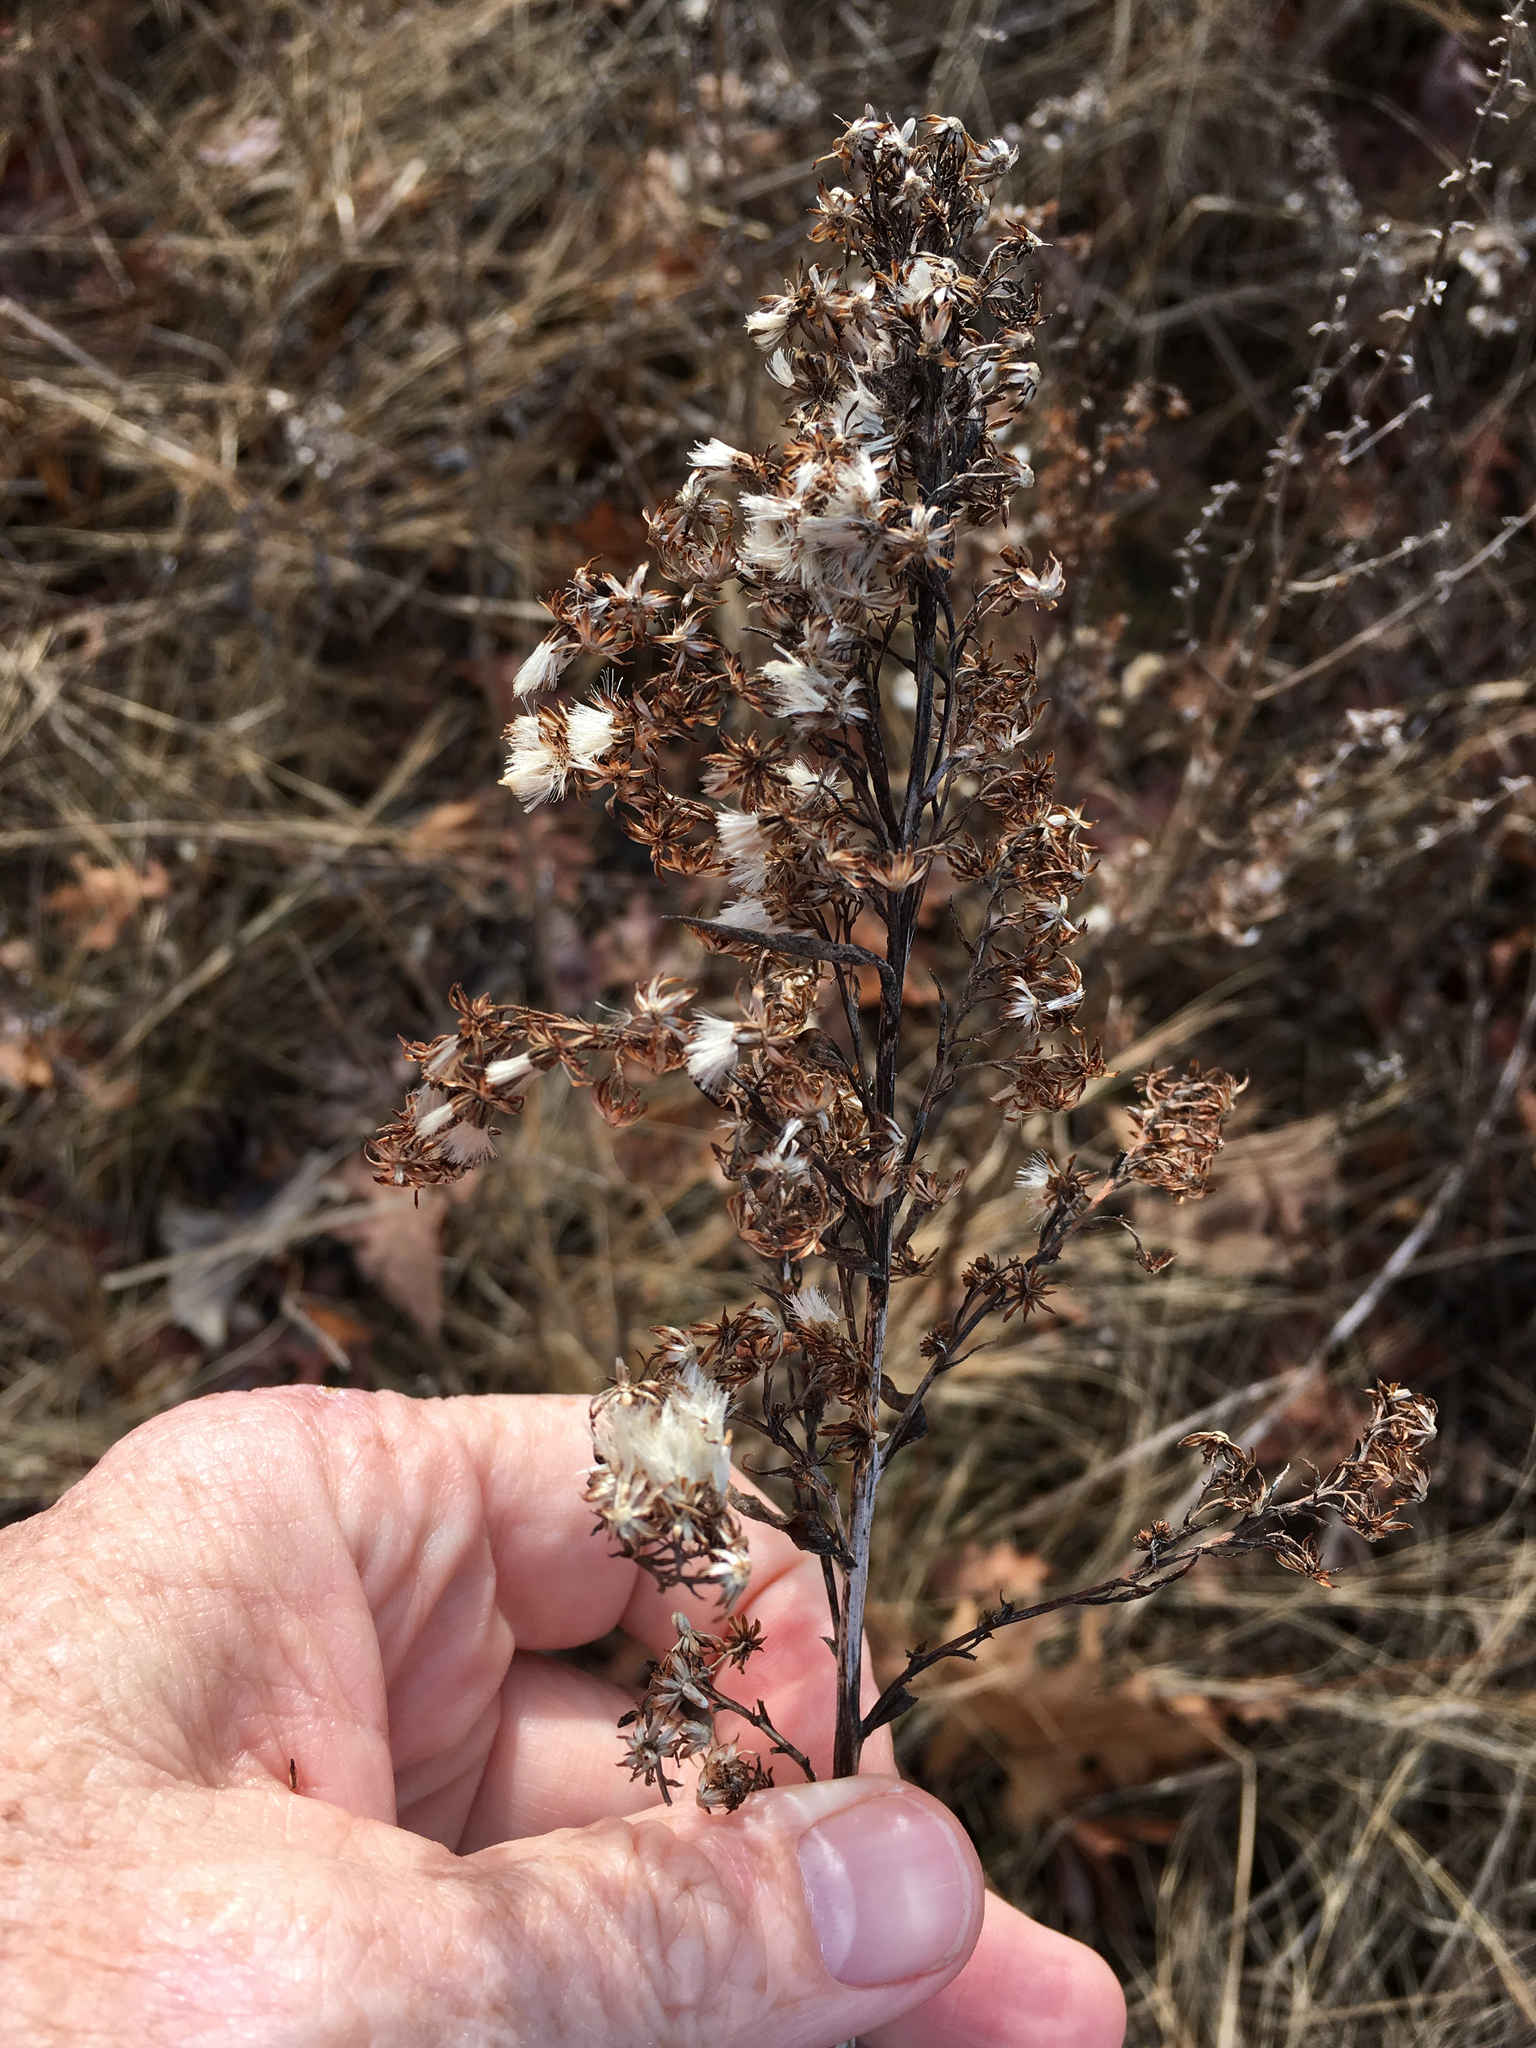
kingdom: Plantae
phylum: Tracheophyta
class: Magnoliopsida
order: Asterales
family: Asteraceae
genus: Solidago
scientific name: Solidago sempervirens
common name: Salt-marsh goldenrod
